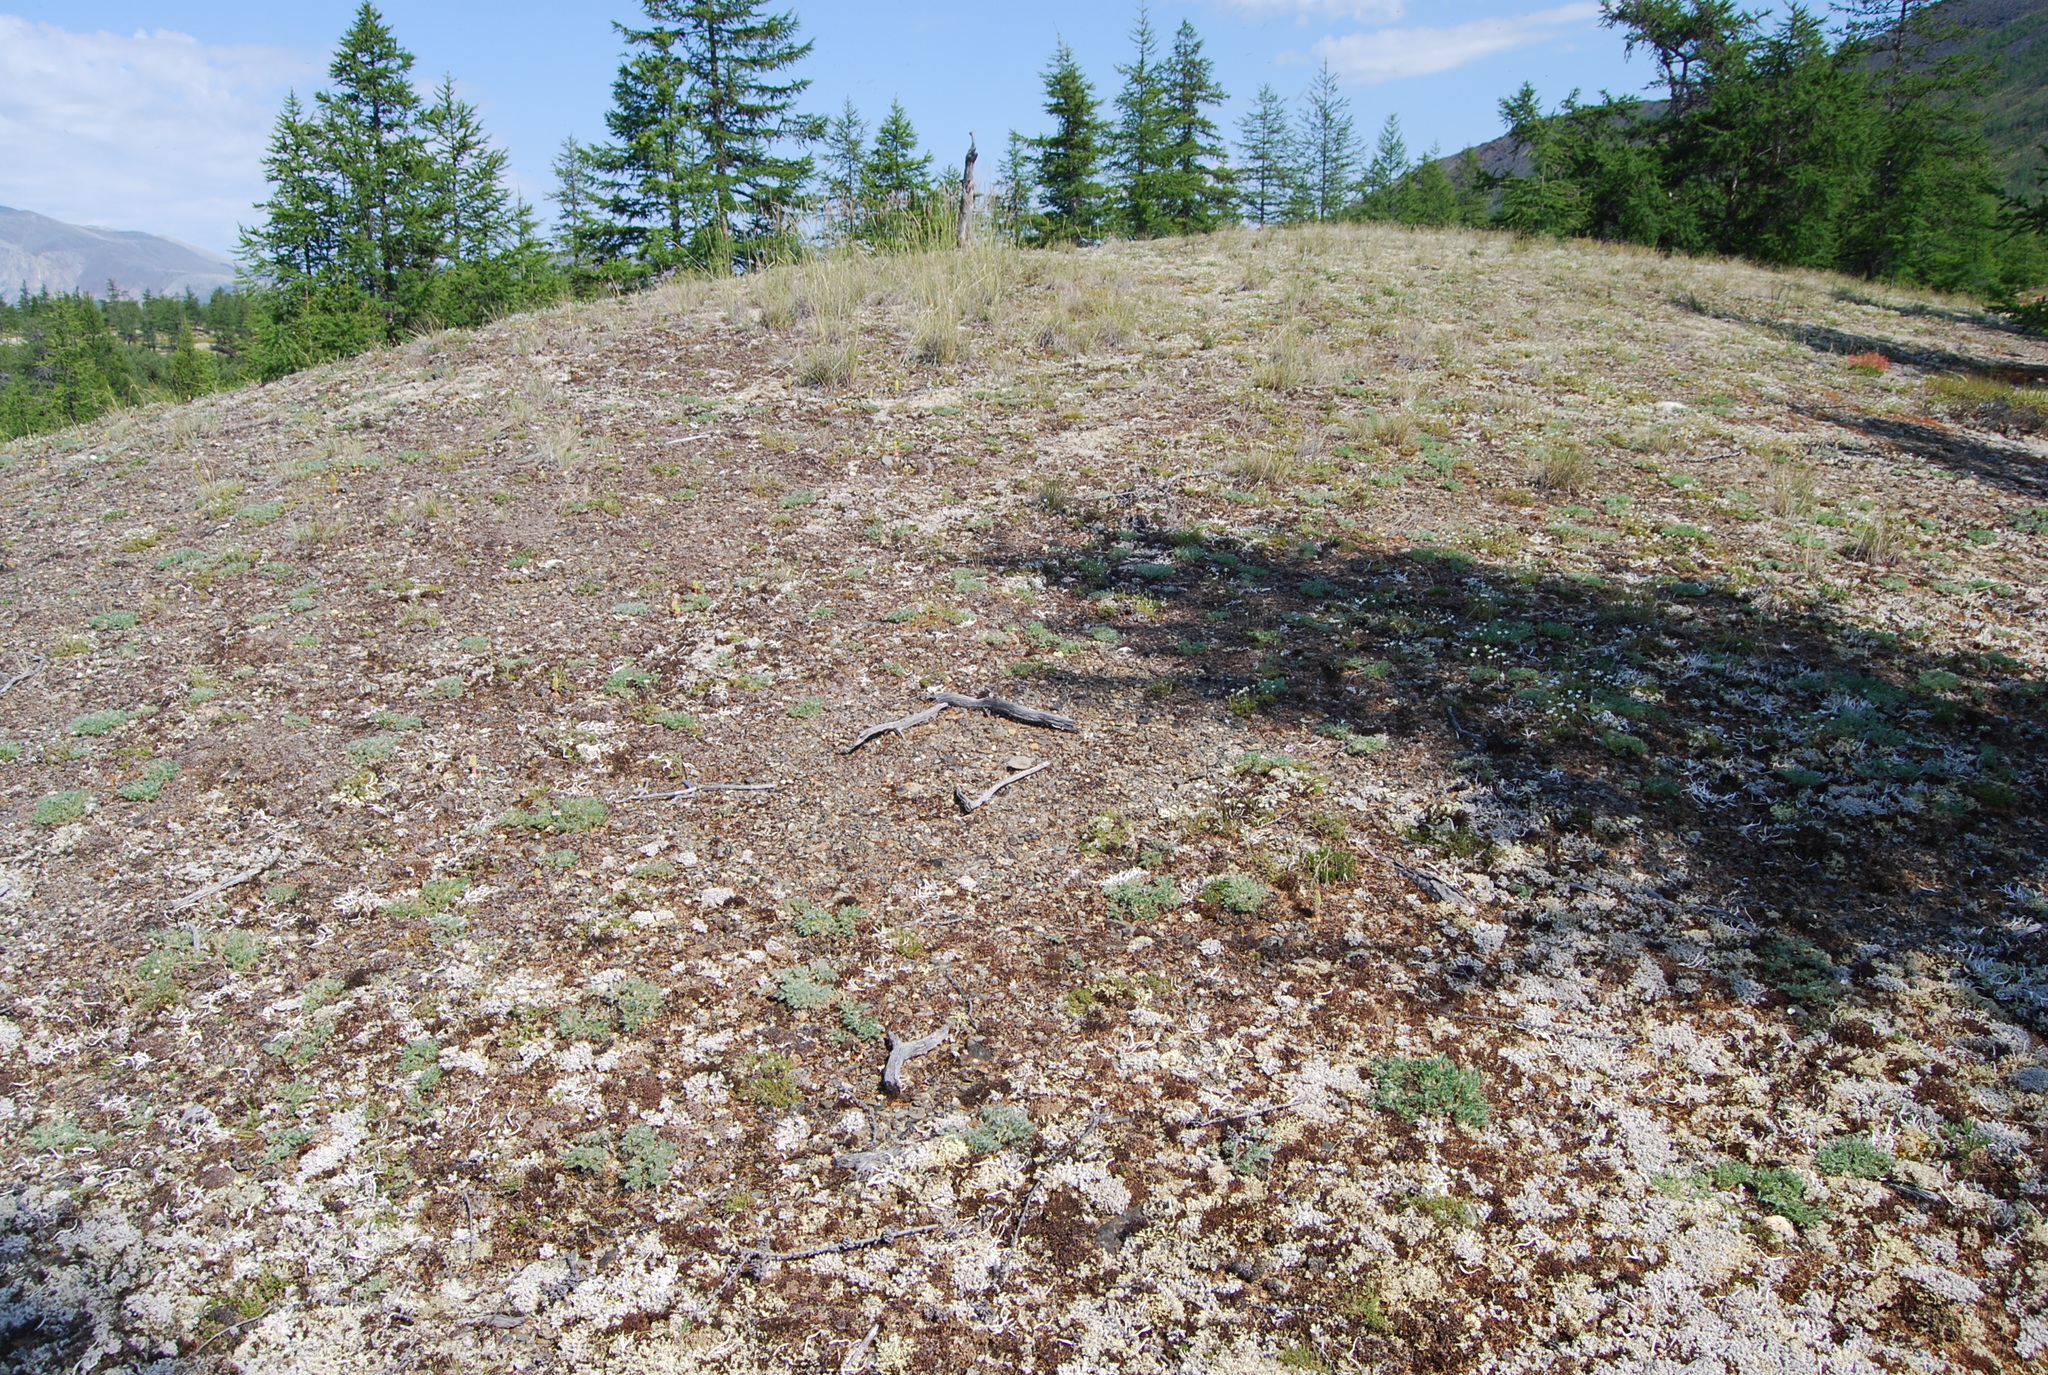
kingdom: Plantae
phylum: Tracheophyta
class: Magnoliopsida
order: Fabales
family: Fabaceae
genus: Oxytropis
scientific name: Oxytropis susumanica
